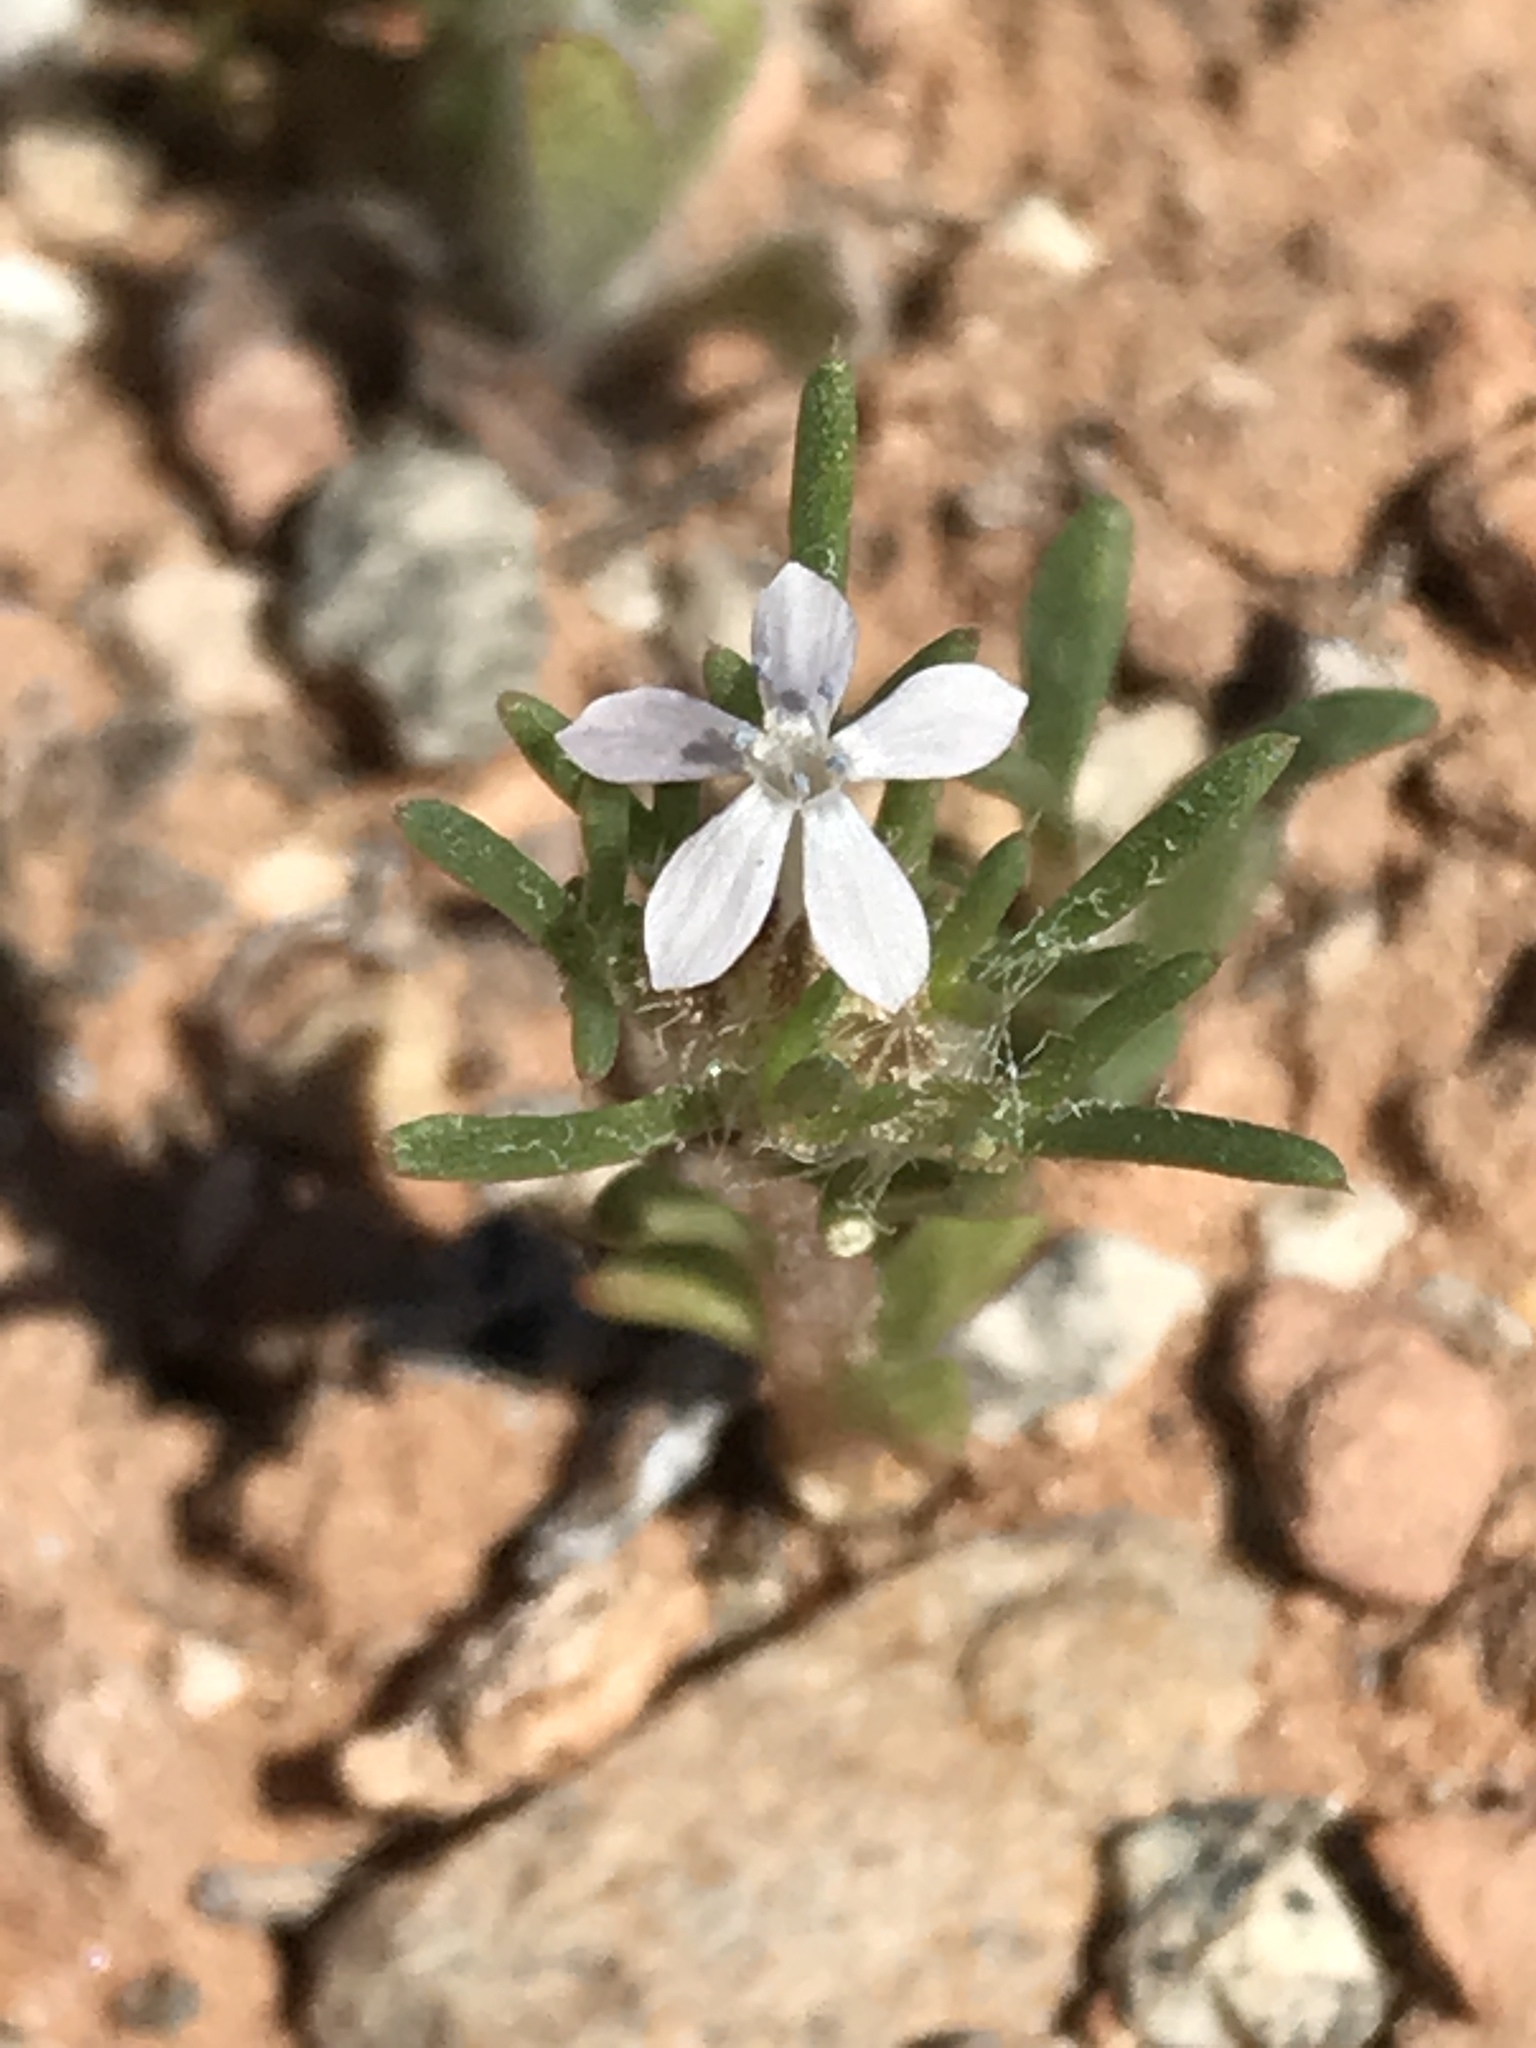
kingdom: Plantae
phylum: Tracheophyta
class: Magnoliopsida
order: Ericales
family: Polemoniaceae
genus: Ipomopsis
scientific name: Ipomopsis pumila
